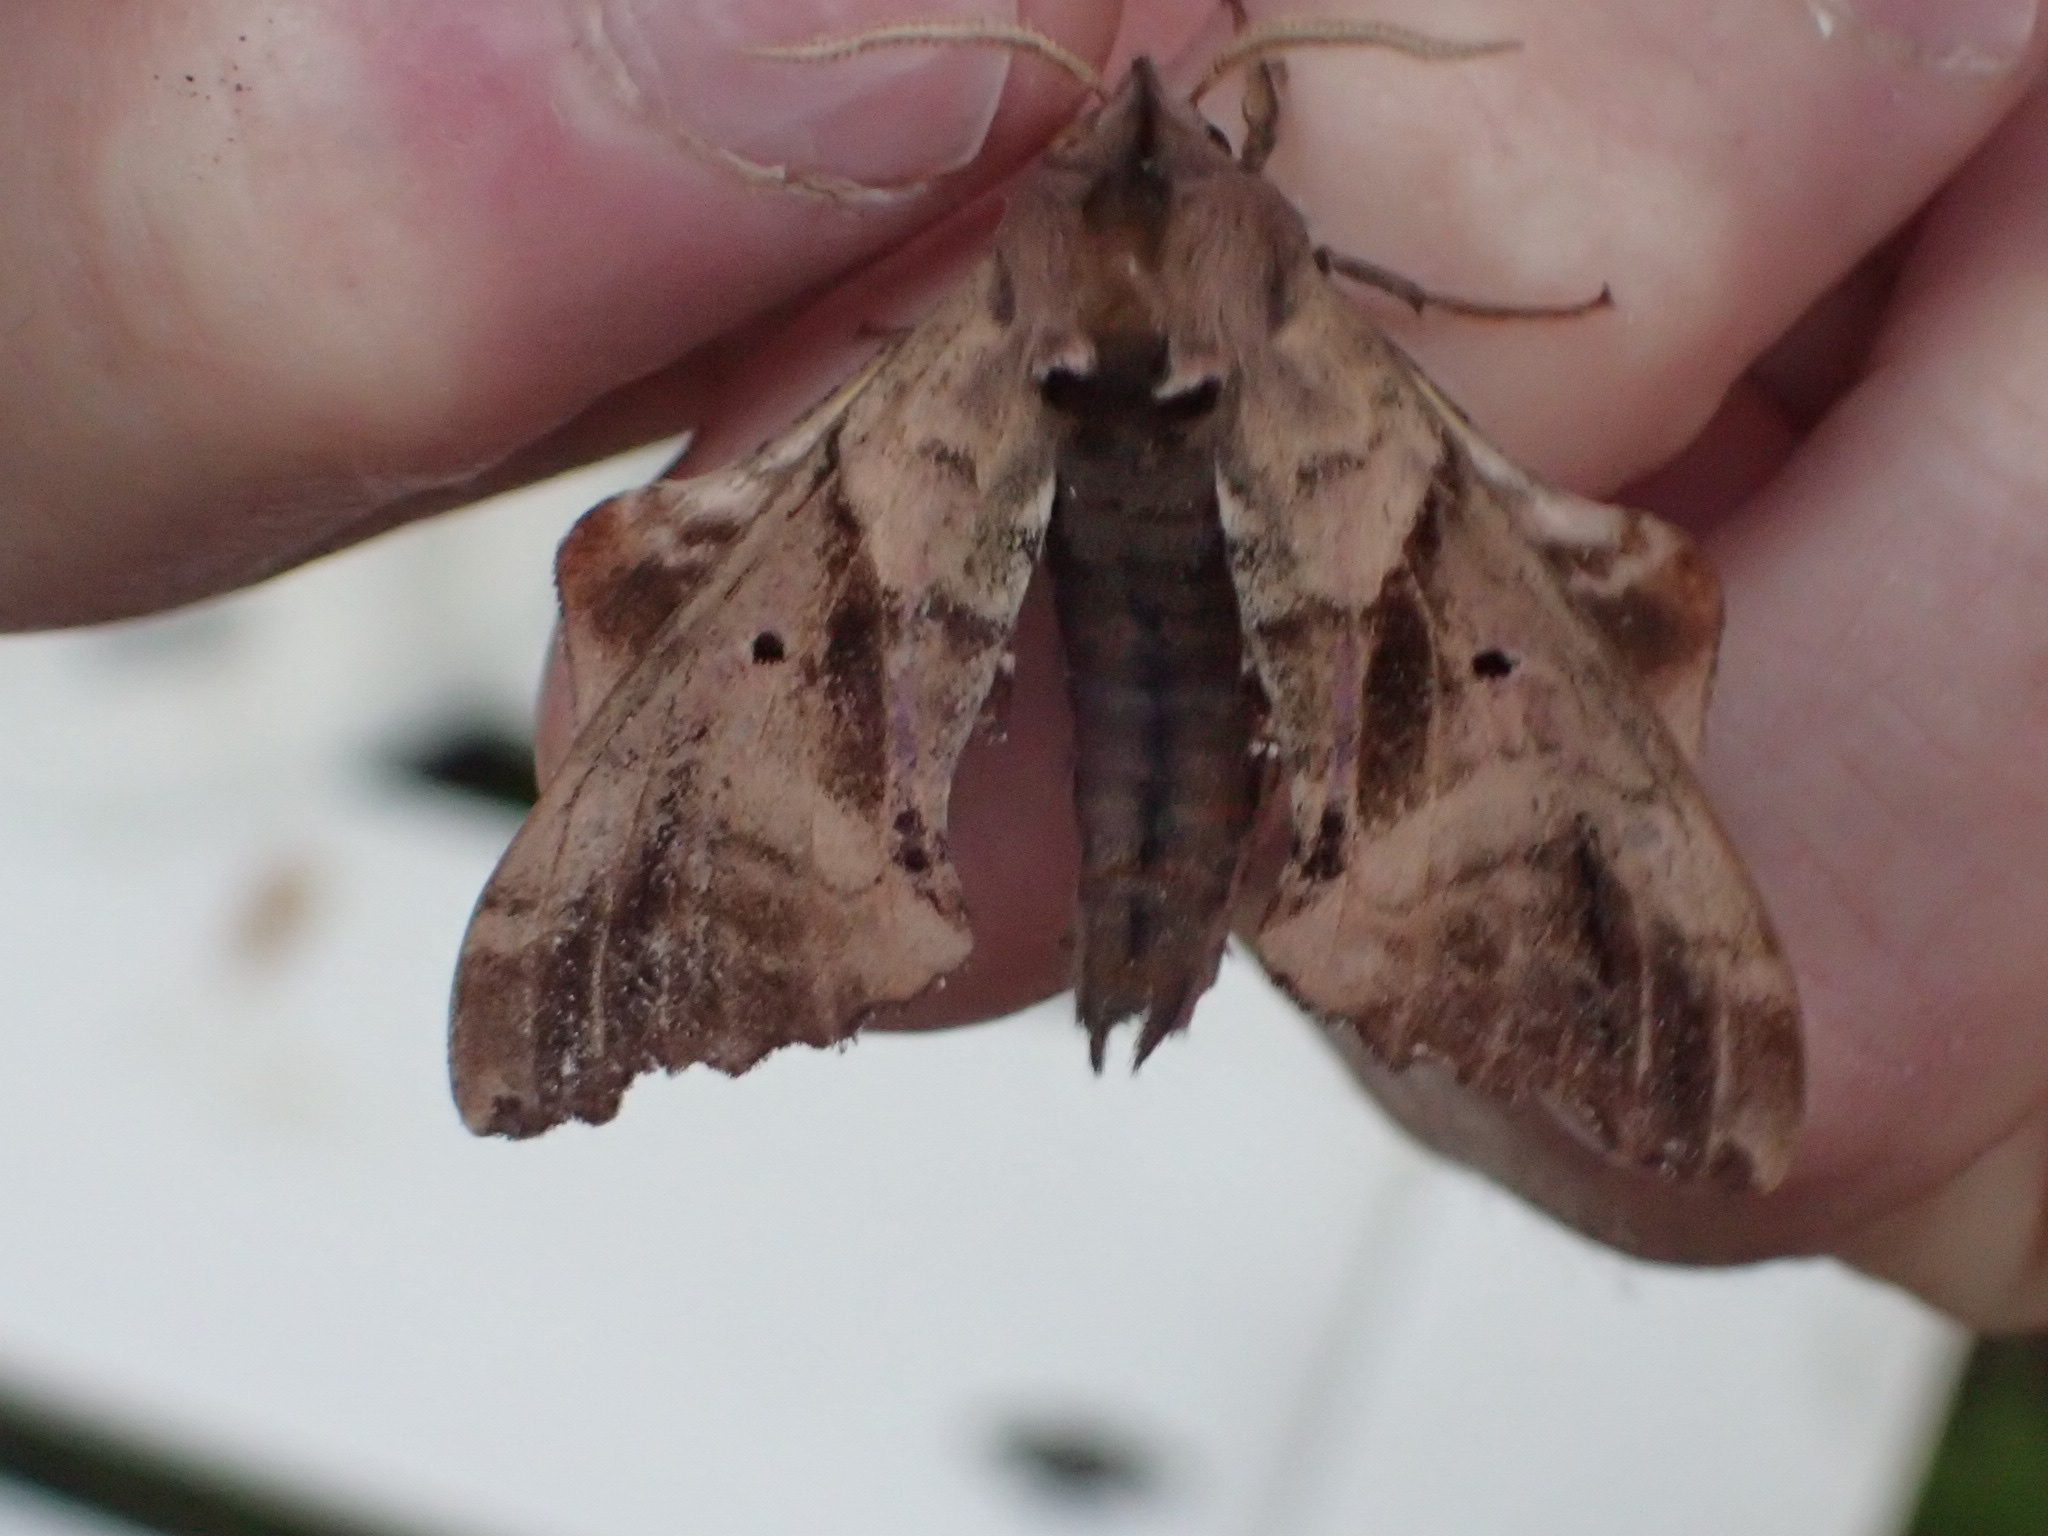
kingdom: Animalia
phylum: Arthropoda
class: Insecta
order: Lepidoptera
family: Sphingidae
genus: Paonias
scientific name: Paonias excaecata
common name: Blind-eyed sphinx
